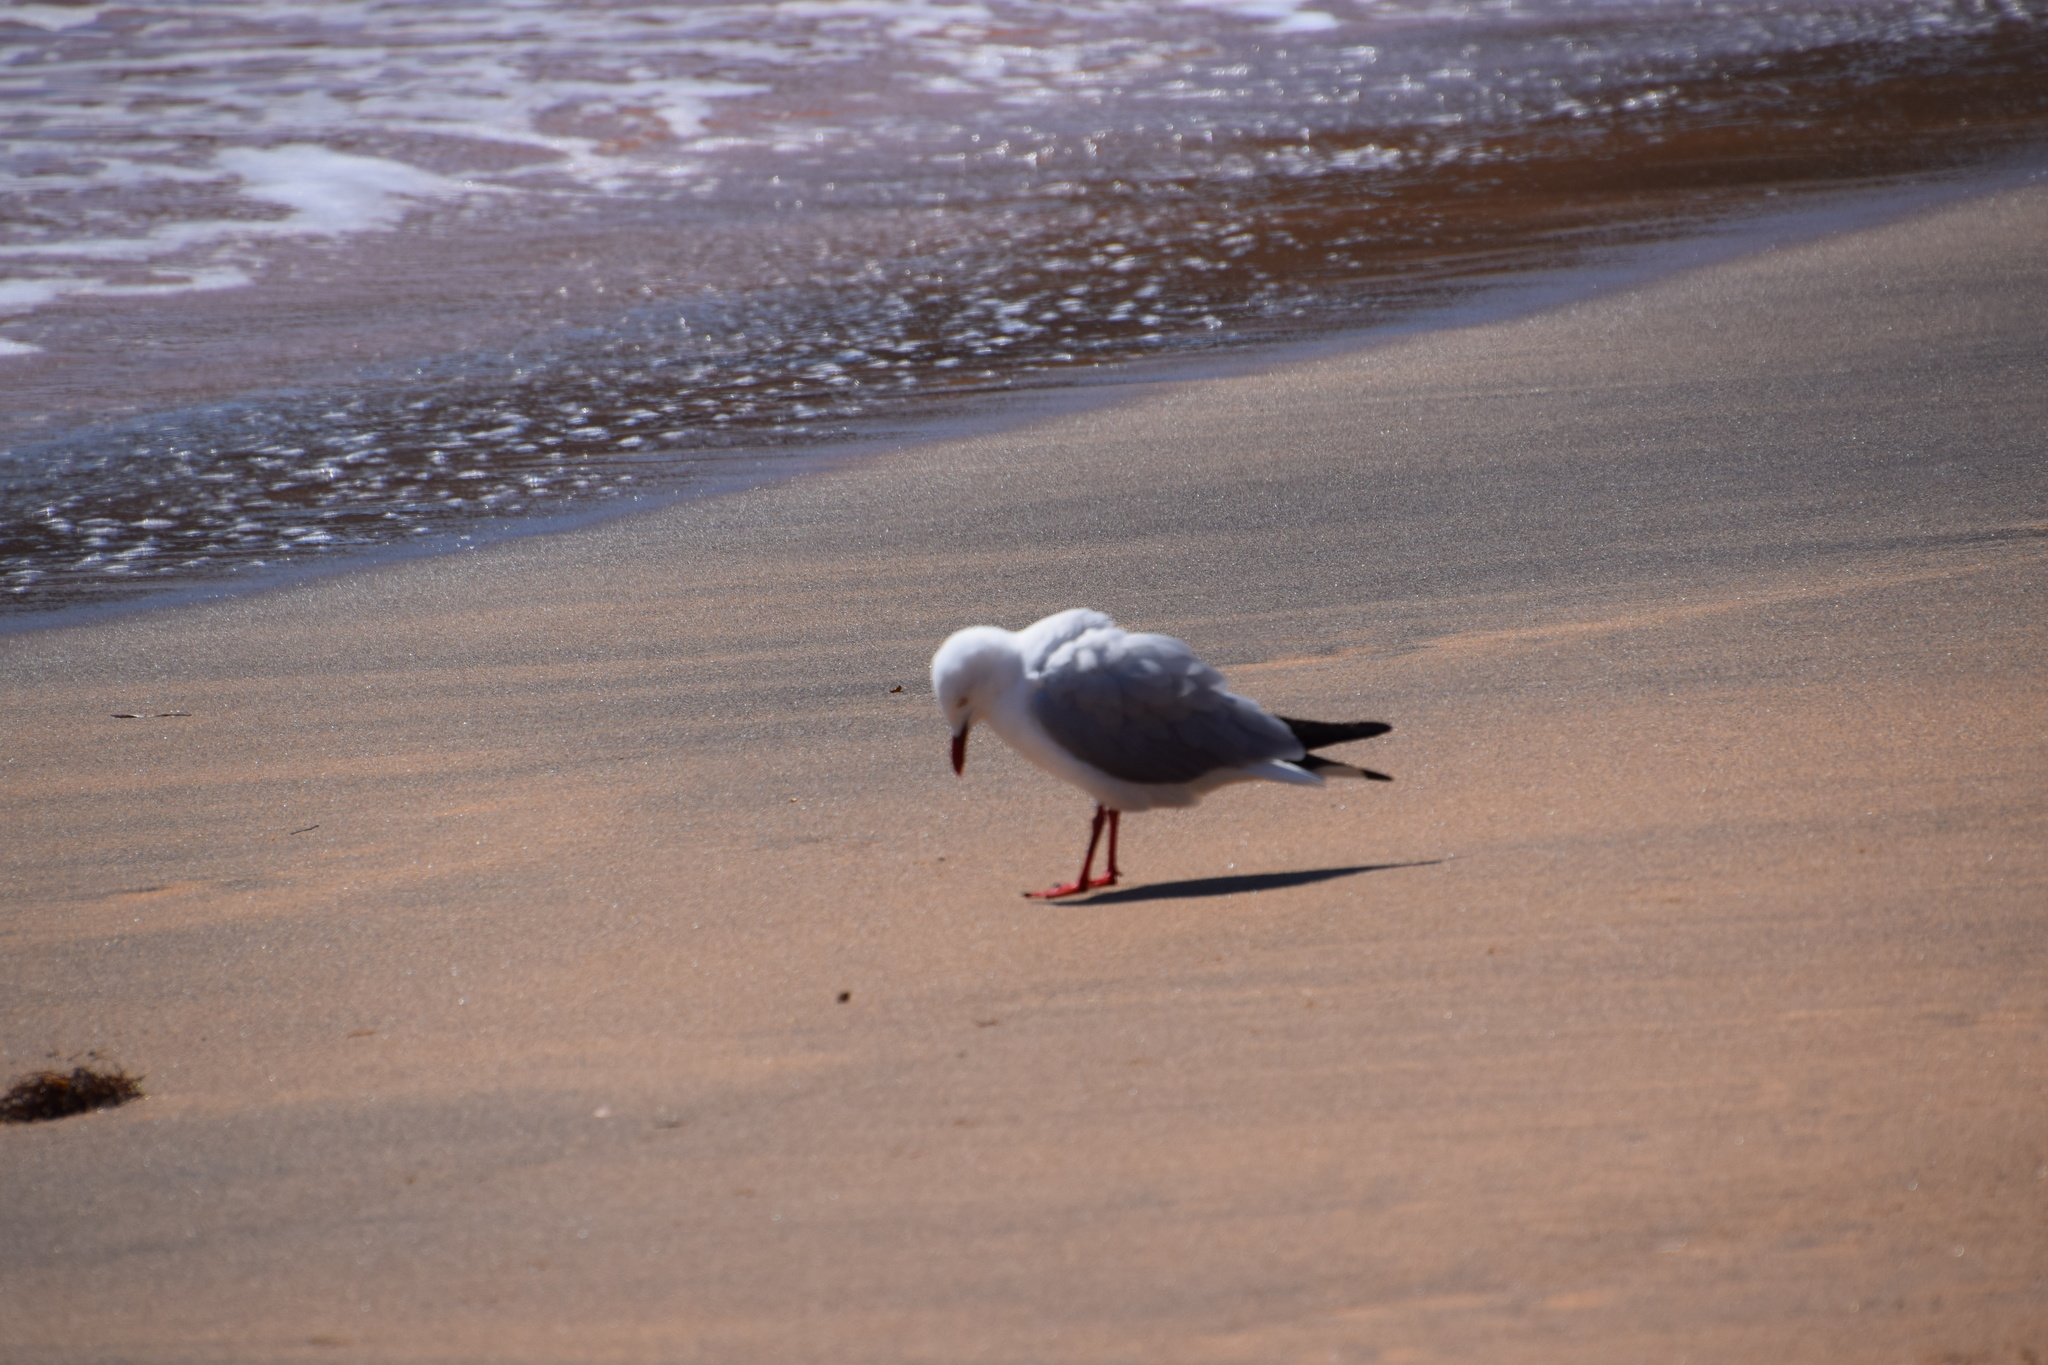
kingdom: Animalia
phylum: Chordata
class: Aves
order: Charadriiformes
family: Laridae
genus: Chroicocephalus
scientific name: Chroicocephalus novaehollandiae
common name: Silver gull
